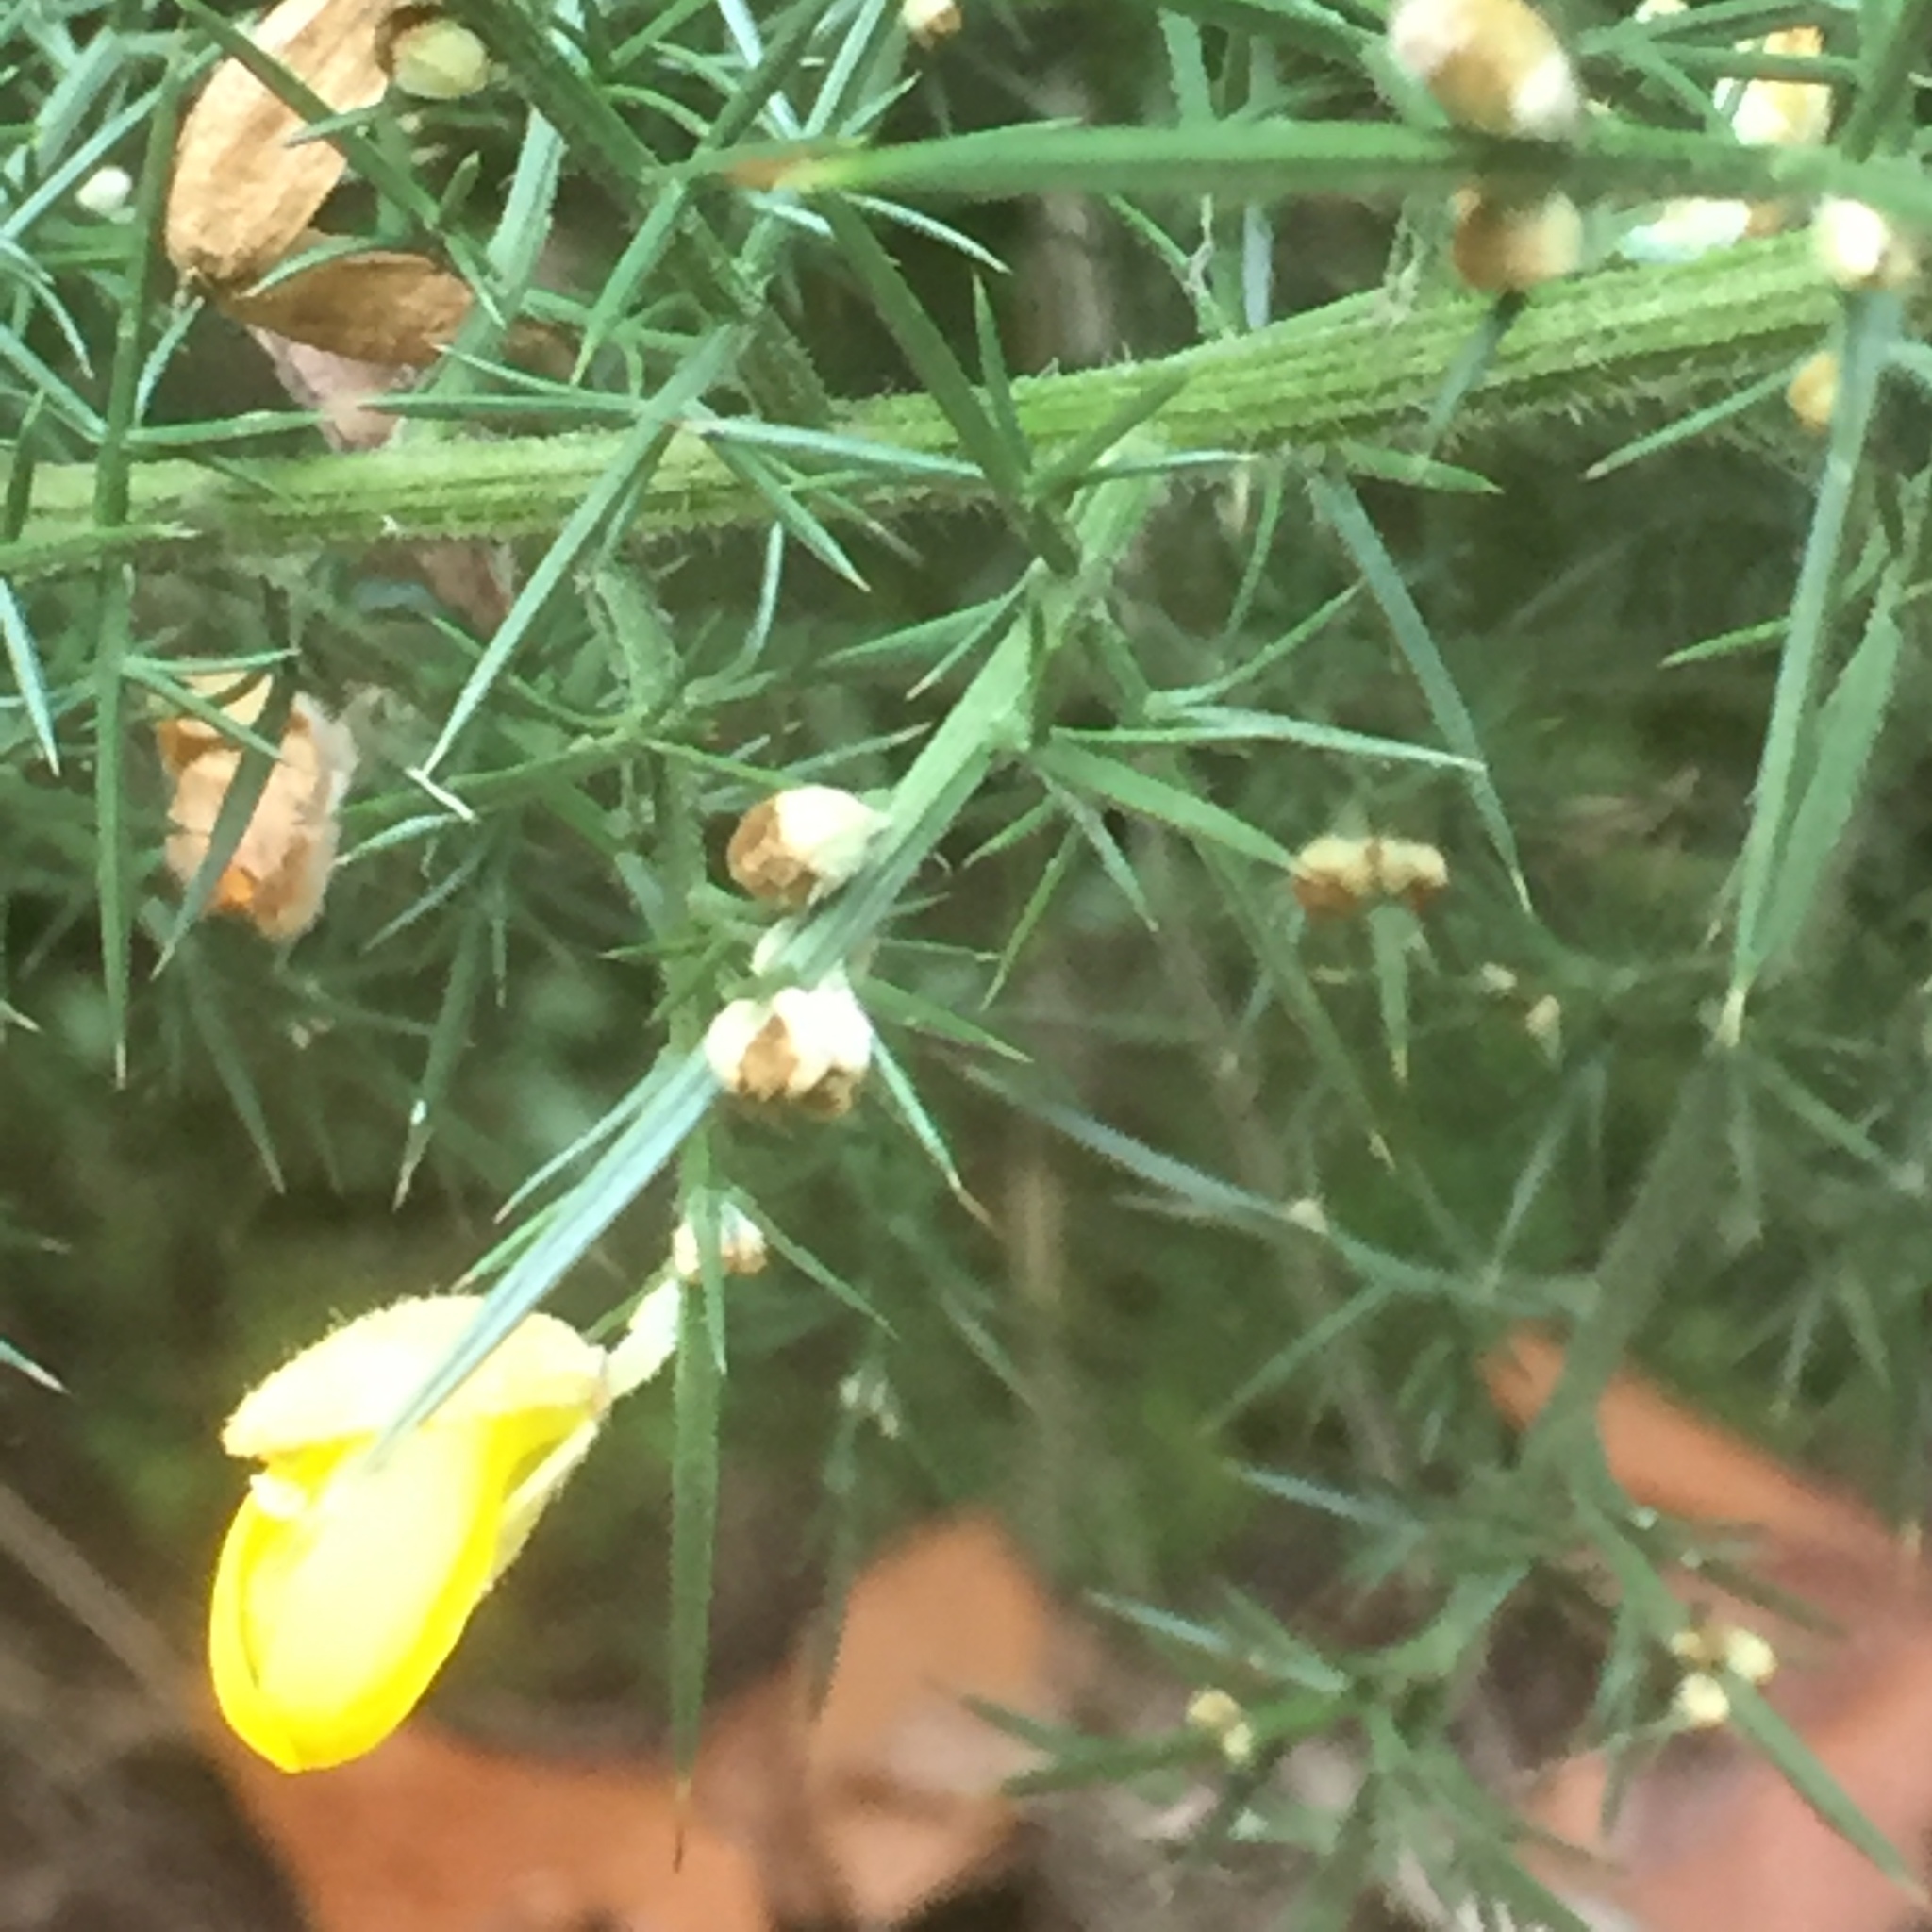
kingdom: Plantae
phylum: Tracheophyta
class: Magnoliopsida
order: Fabales
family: Fabaceae
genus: Ulex
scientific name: Ulex europaeus
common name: Common gorse
